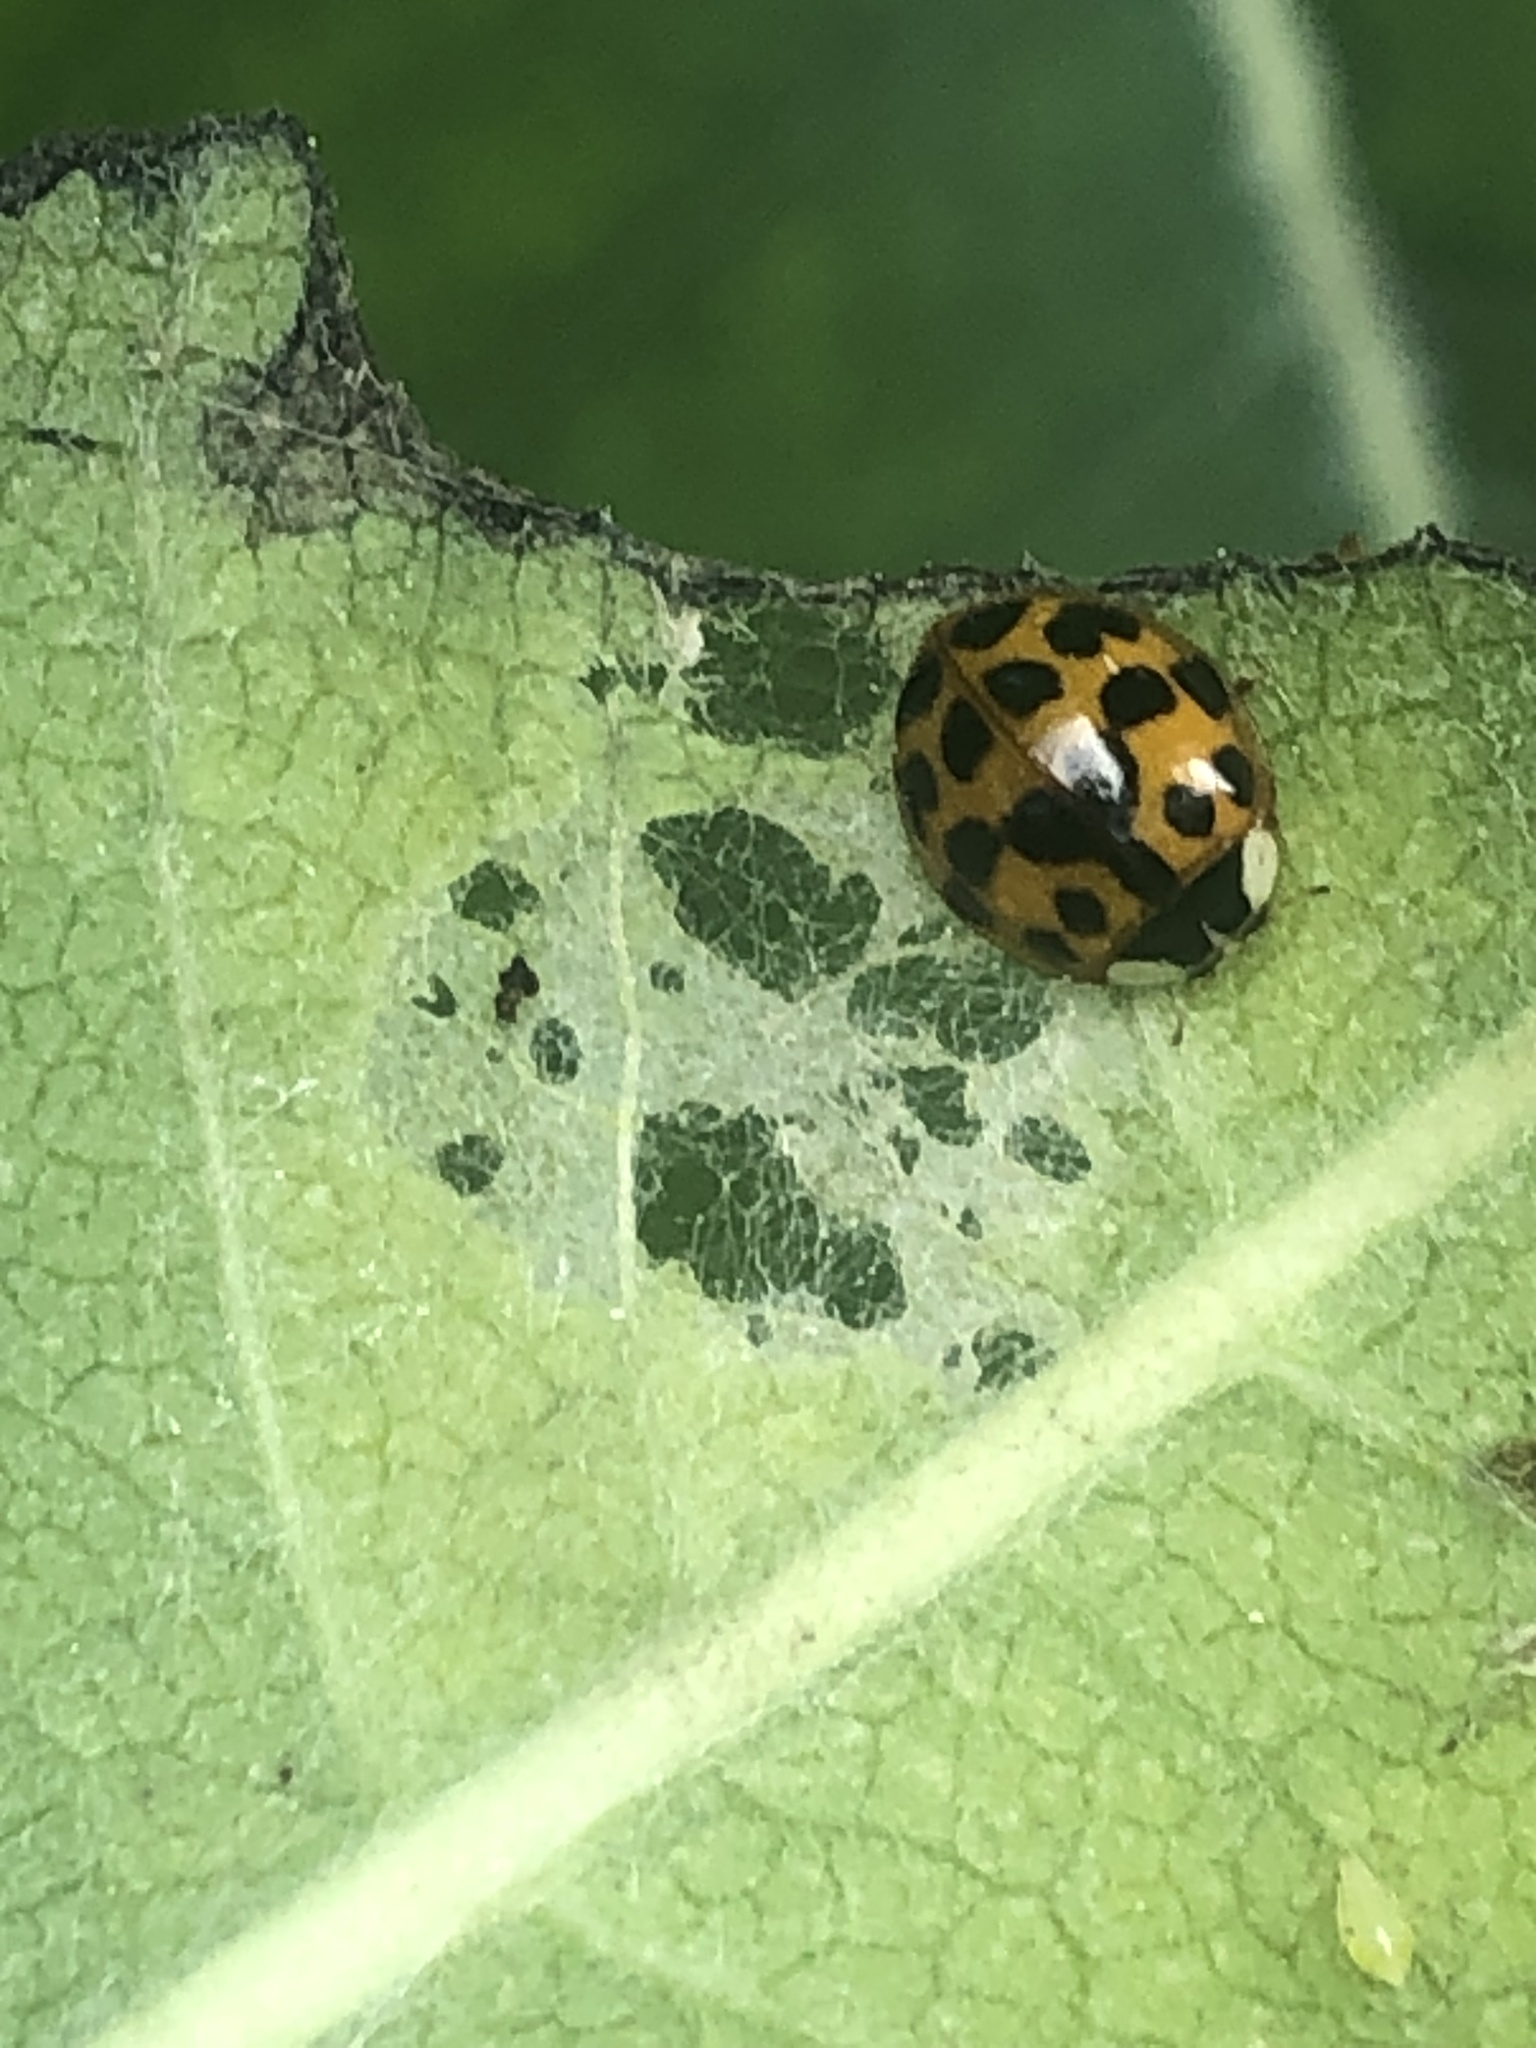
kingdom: Animalia
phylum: Arthropoda
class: Insecta
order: Coleoptera
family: Coccinellidae
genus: Harmonia
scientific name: Harmonia axyridis
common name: Harlequin ladybird
